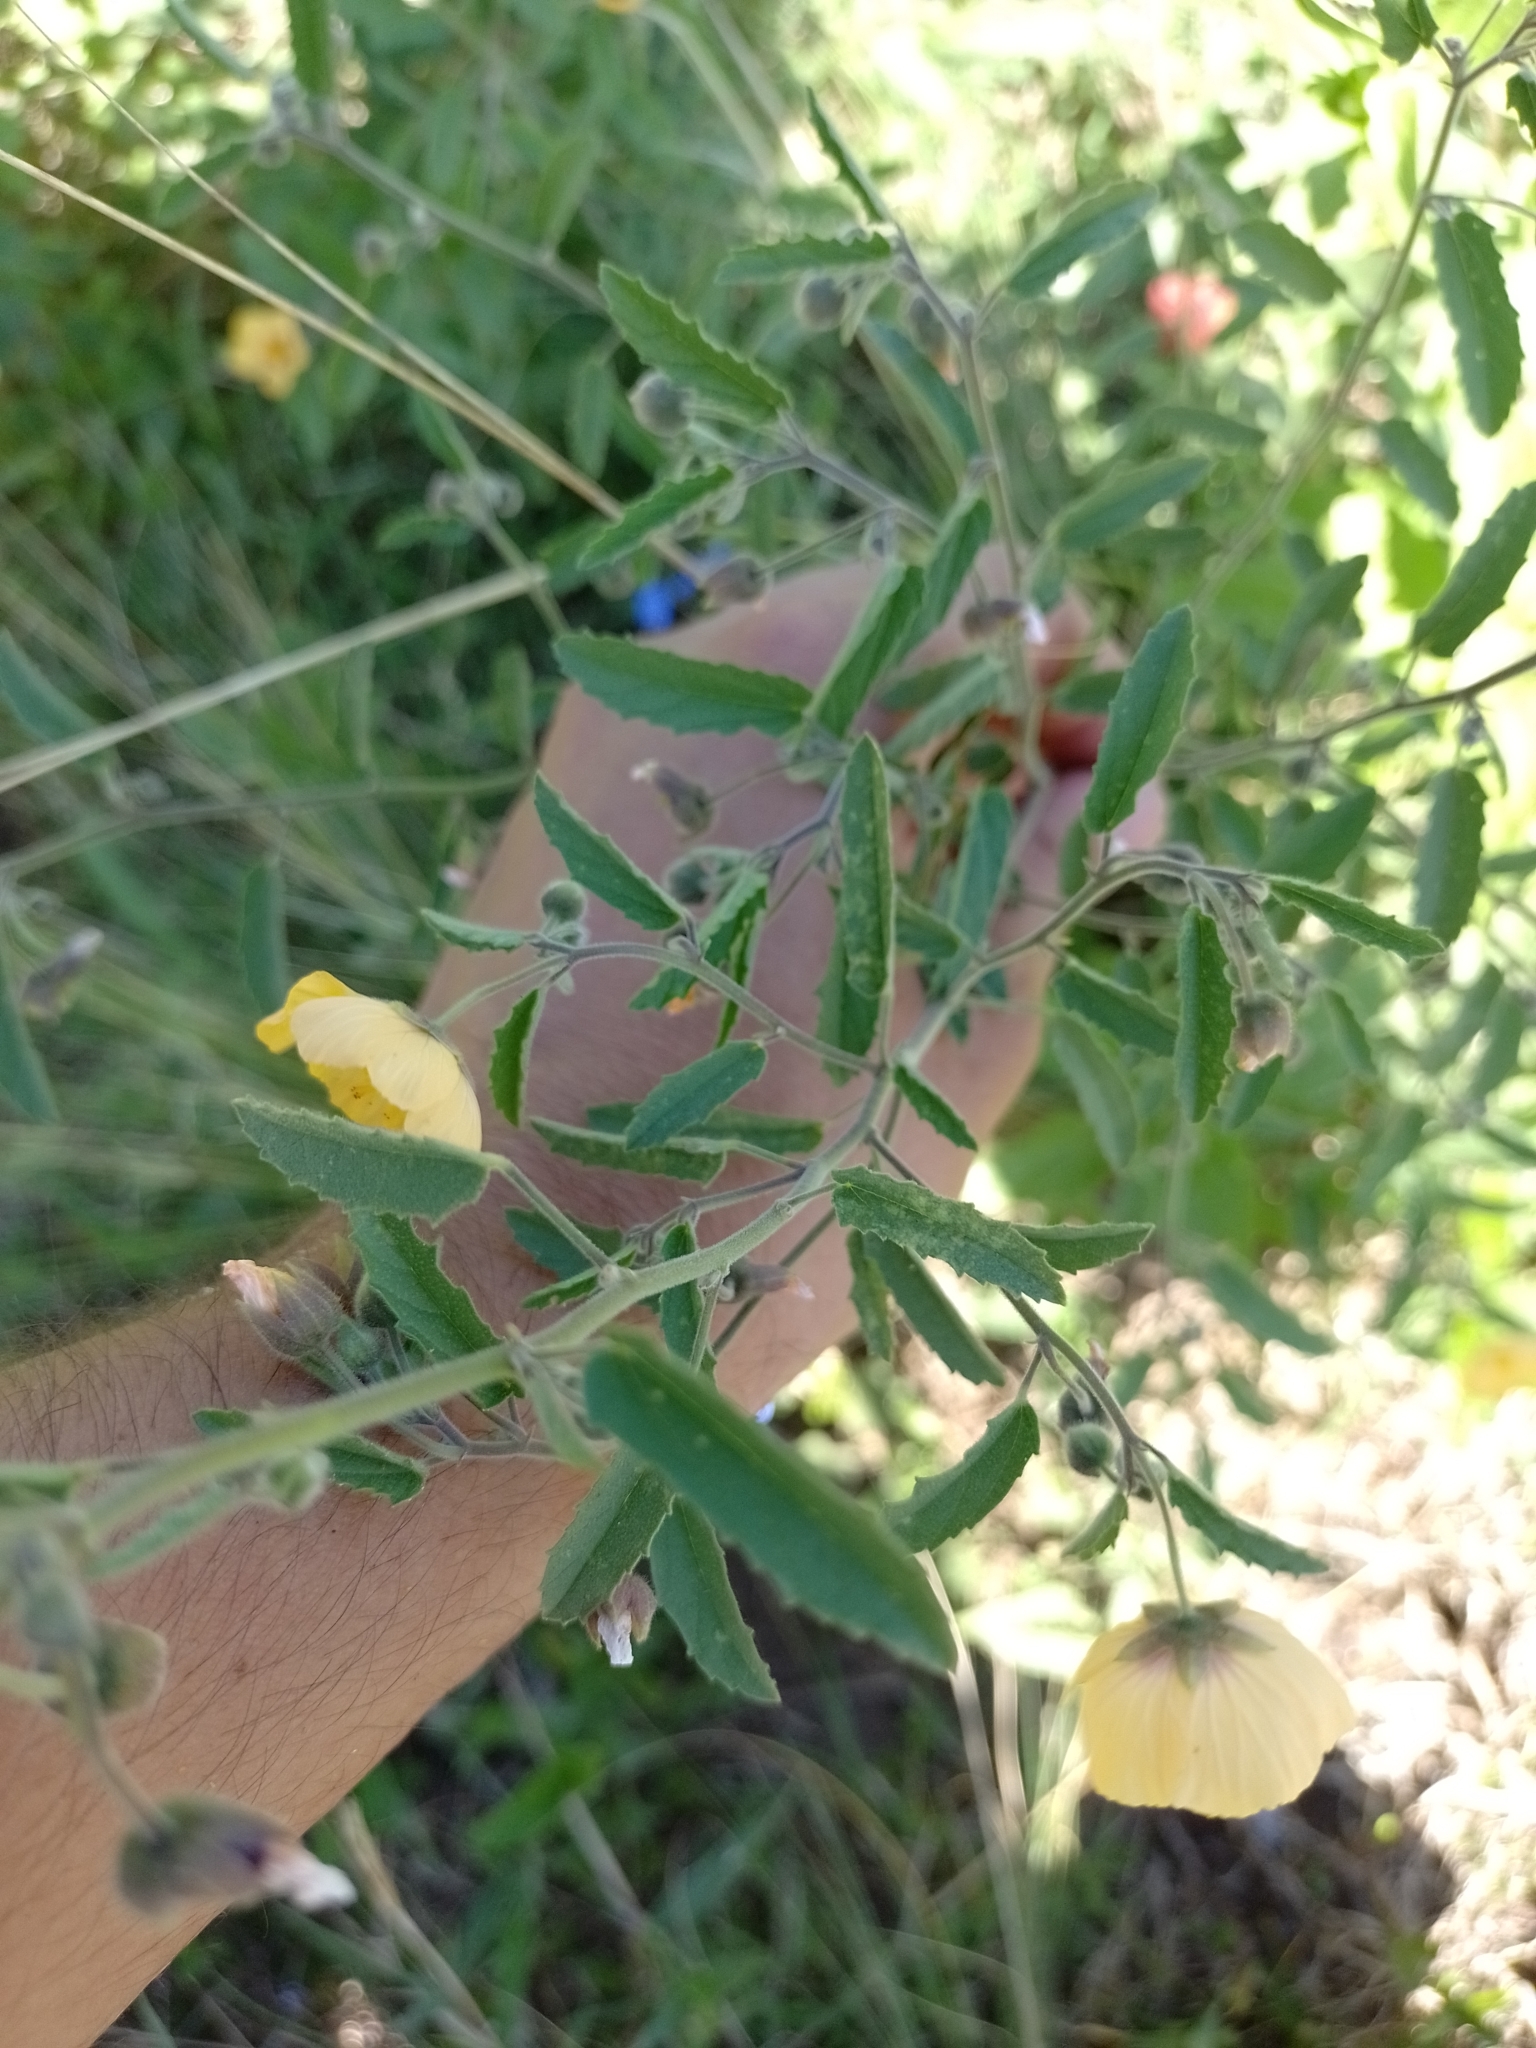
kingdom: Plantae
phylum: Tracheophyta
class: Magnoliopsida
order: Malvales
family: Malvaceae
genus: Gaya
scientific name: Gaya parviflora
